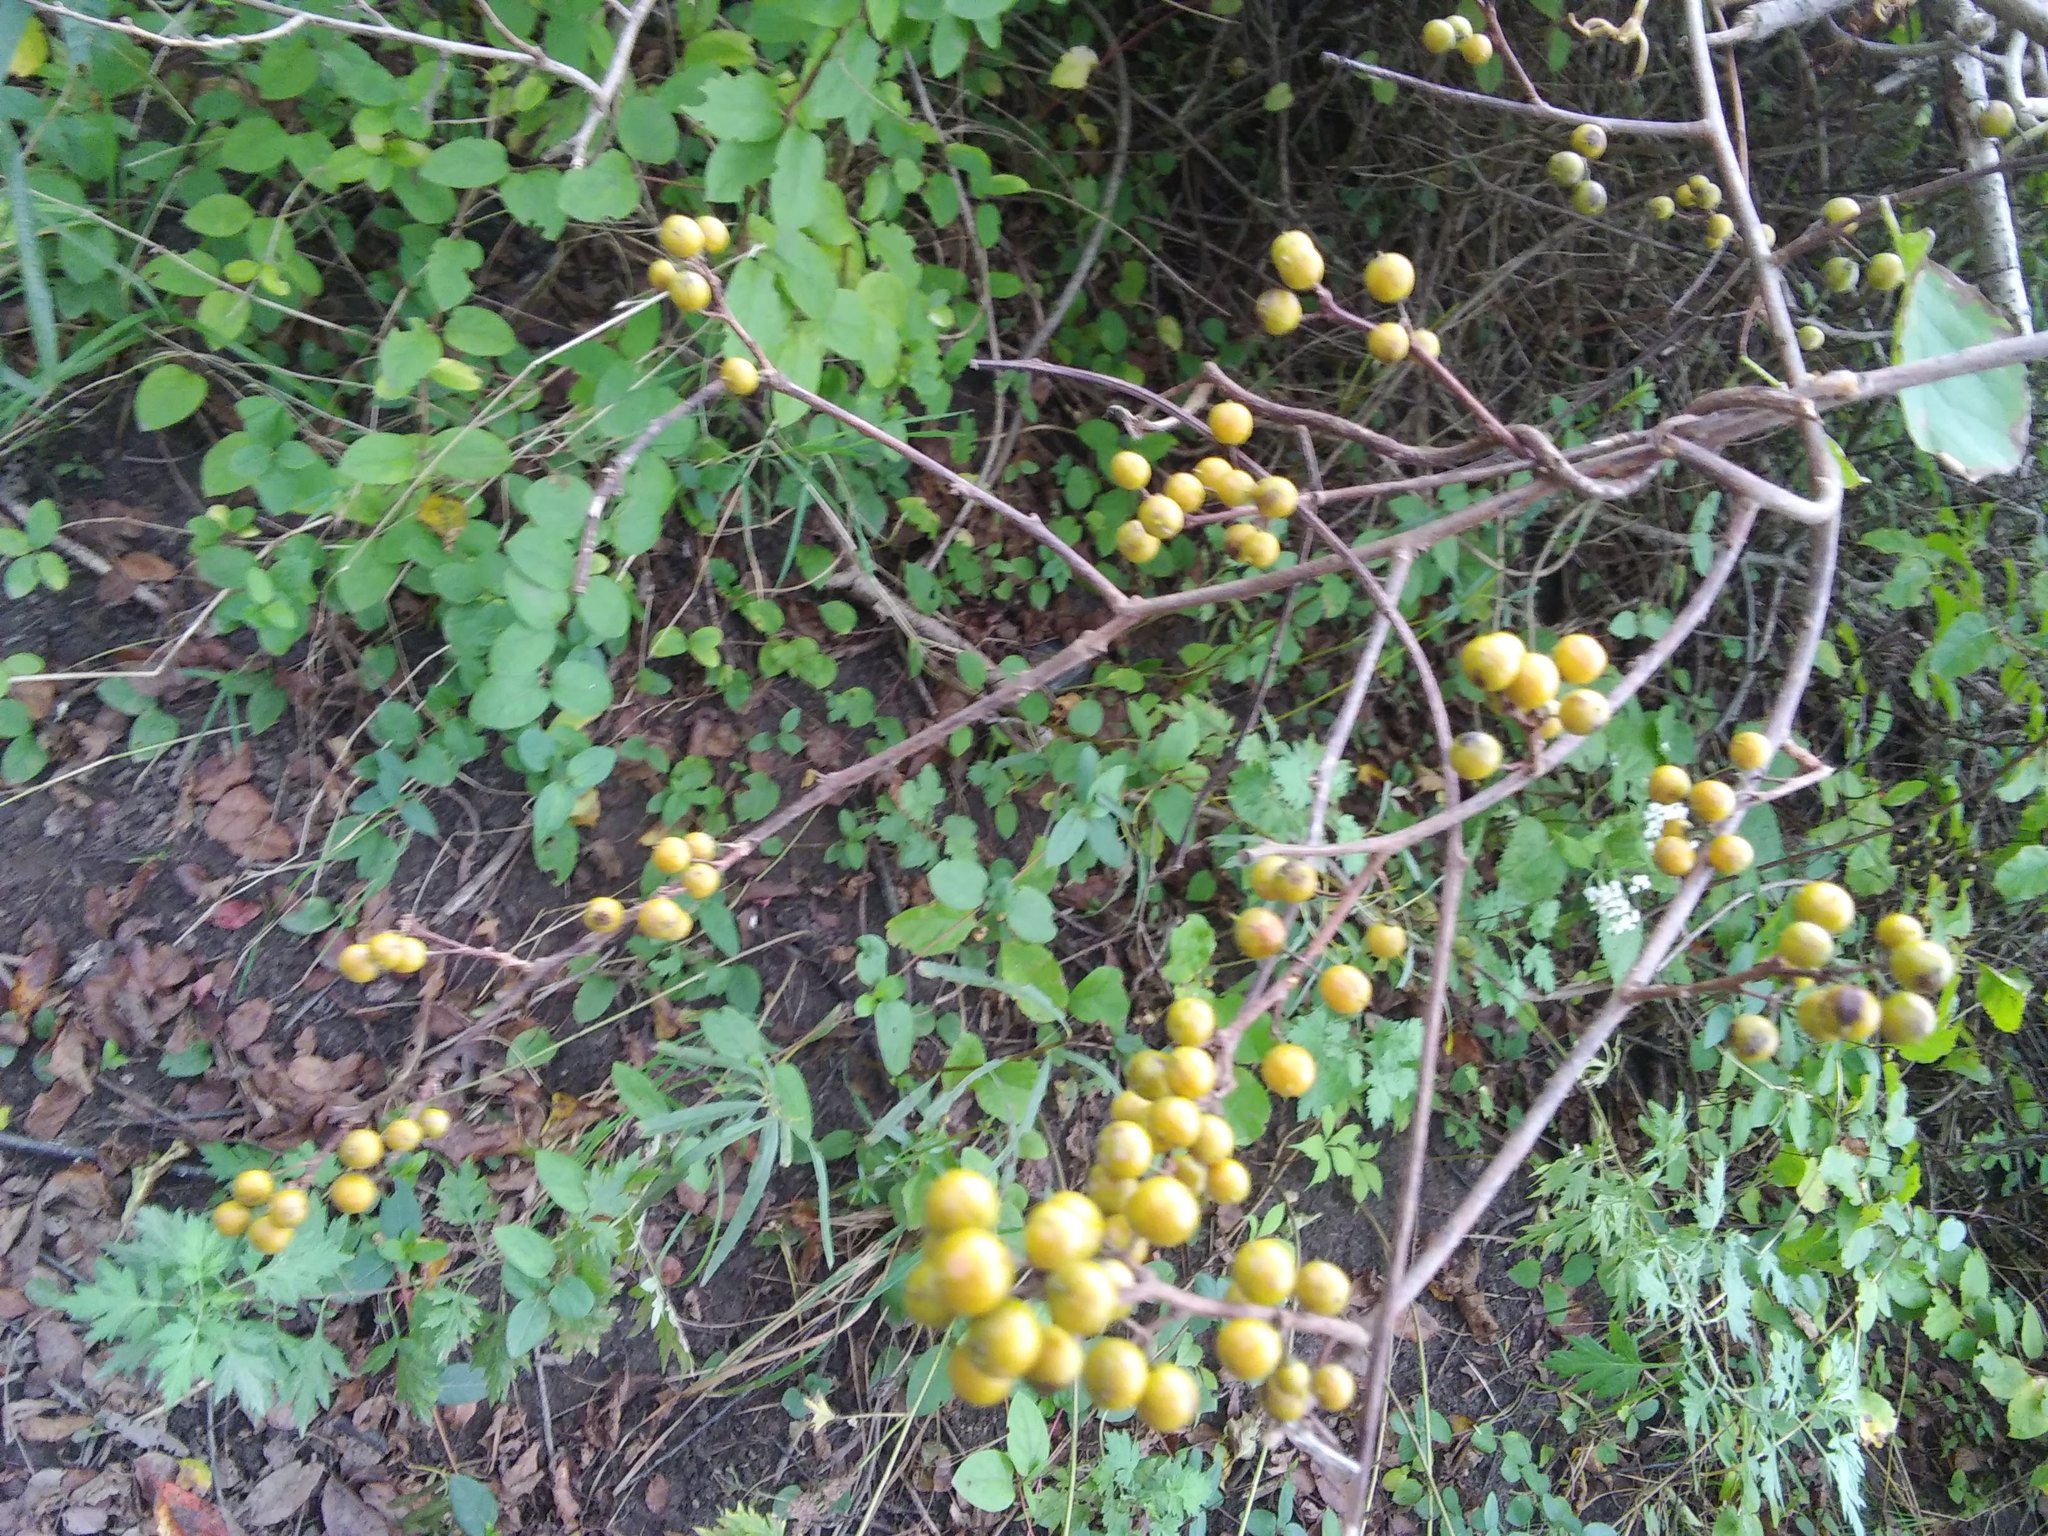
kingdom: Plantae
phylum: Tracheophyta
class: Magnoliopsida
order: Celastrales
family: Celastraceae
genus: Celastrus
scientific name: Celastrus orbiculatus
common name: Oriental bittersweet
